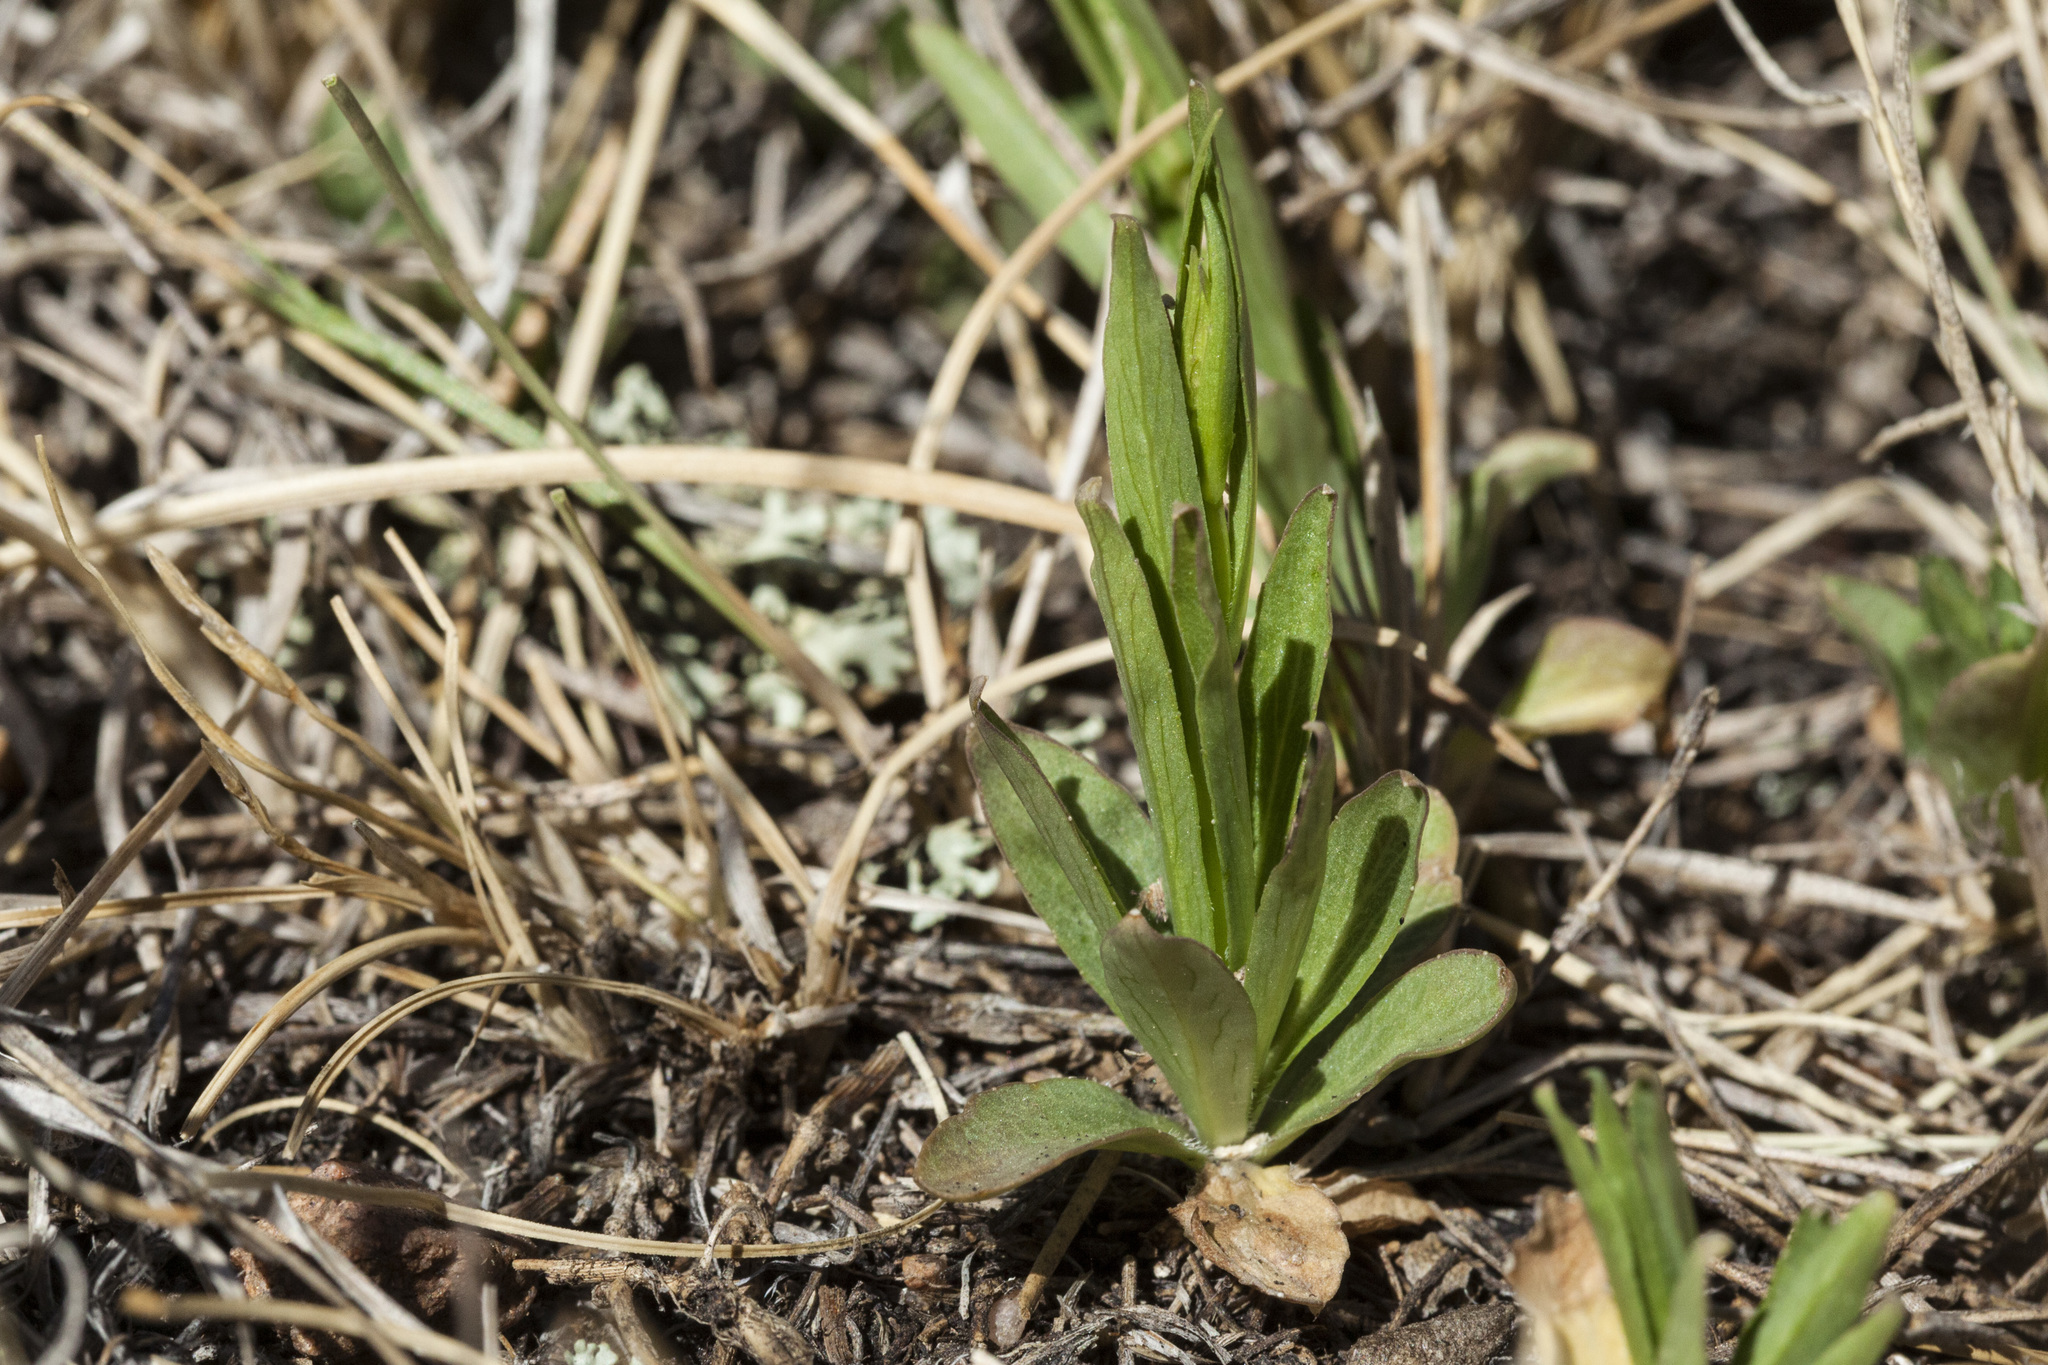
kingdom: Plantae
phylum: Tracheophyta
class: Magnoliopsida
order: Asterales
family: Campanulaceae
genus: Campanula
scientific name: Campanula parryi
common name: Rocky mountain bellflower
